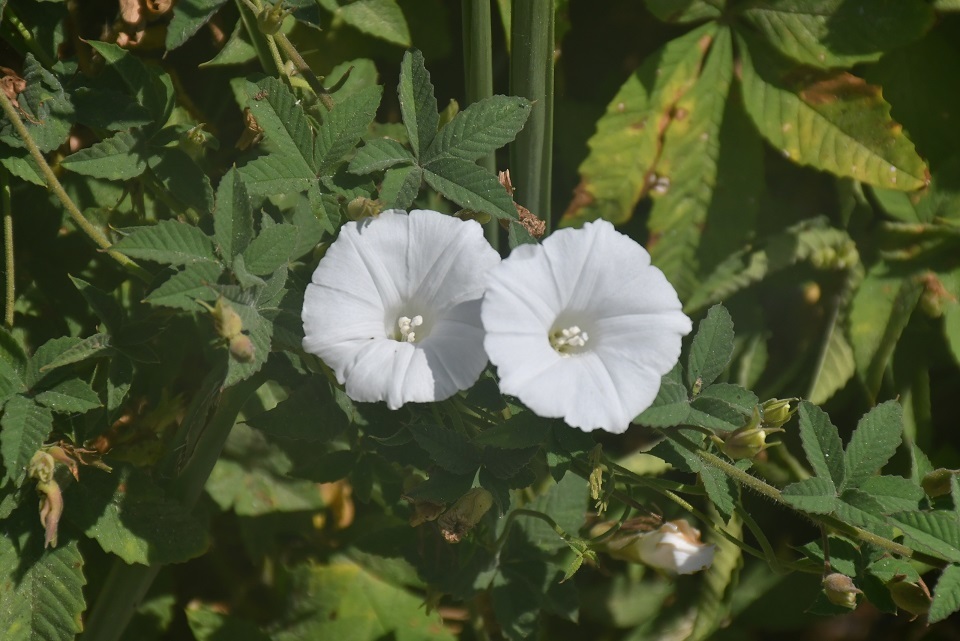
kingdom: Plantae
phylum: Tracheophyta
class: Magnoliopsida
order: Solanales
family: Convolvulaceae
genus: Distimake
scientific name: Distimake cissoides
